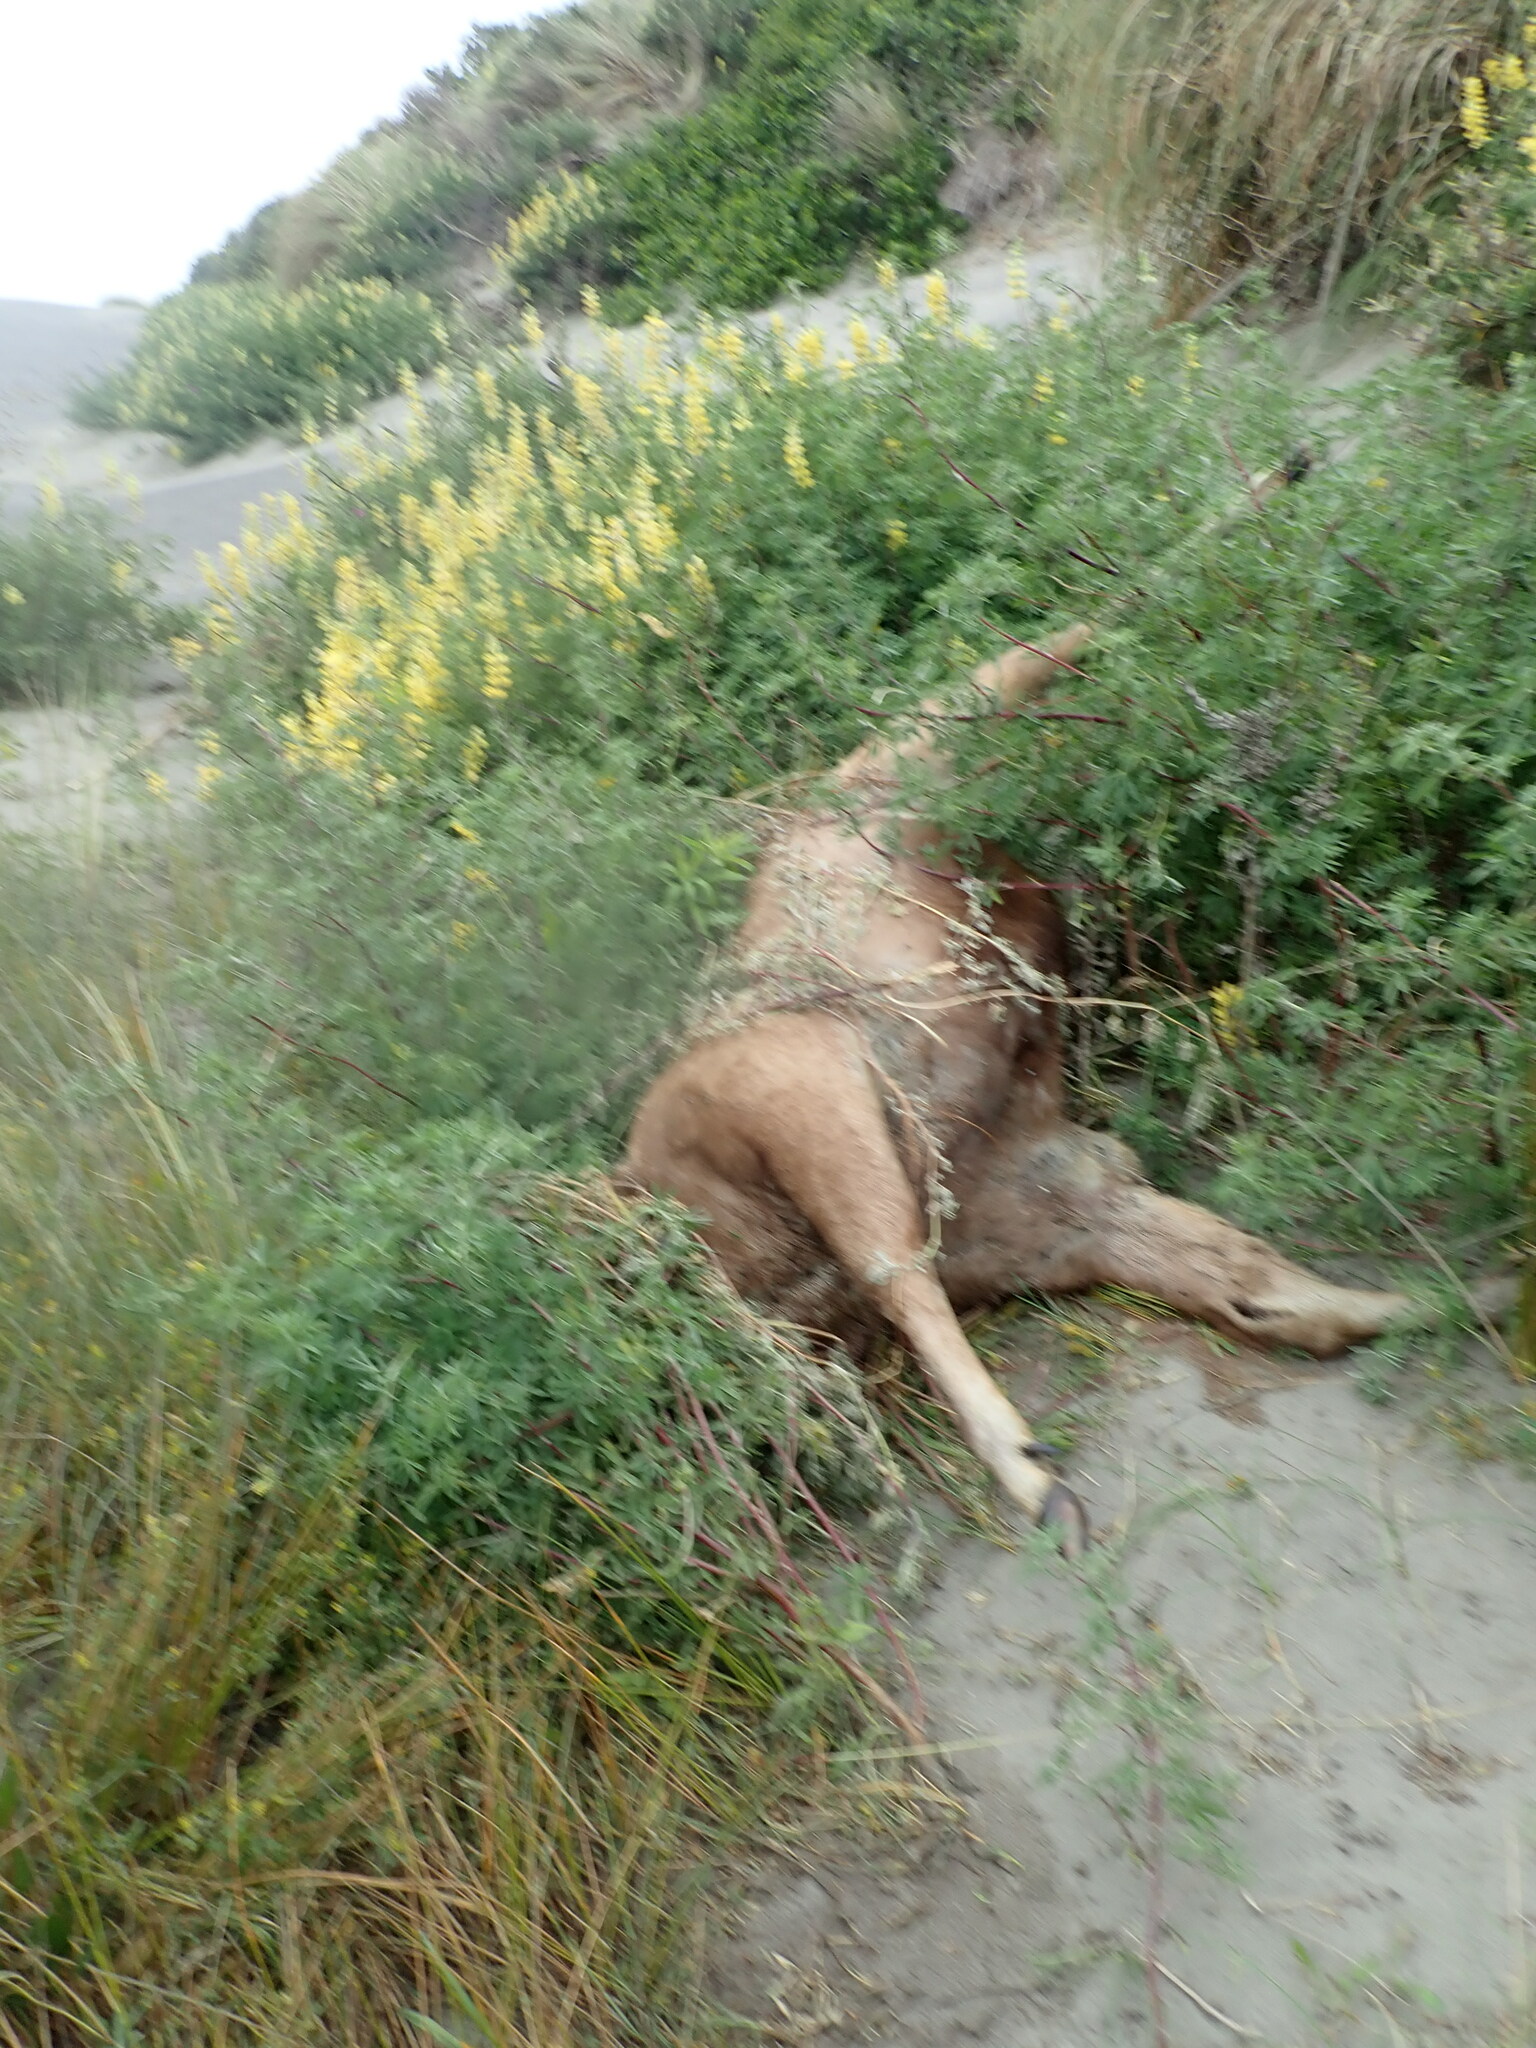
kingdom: Animalia
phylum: Chordata
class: Mammalia
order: Artiodactyla
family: Cervidae
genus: Rusa
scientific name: Rusa unicolor
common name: Sambar
